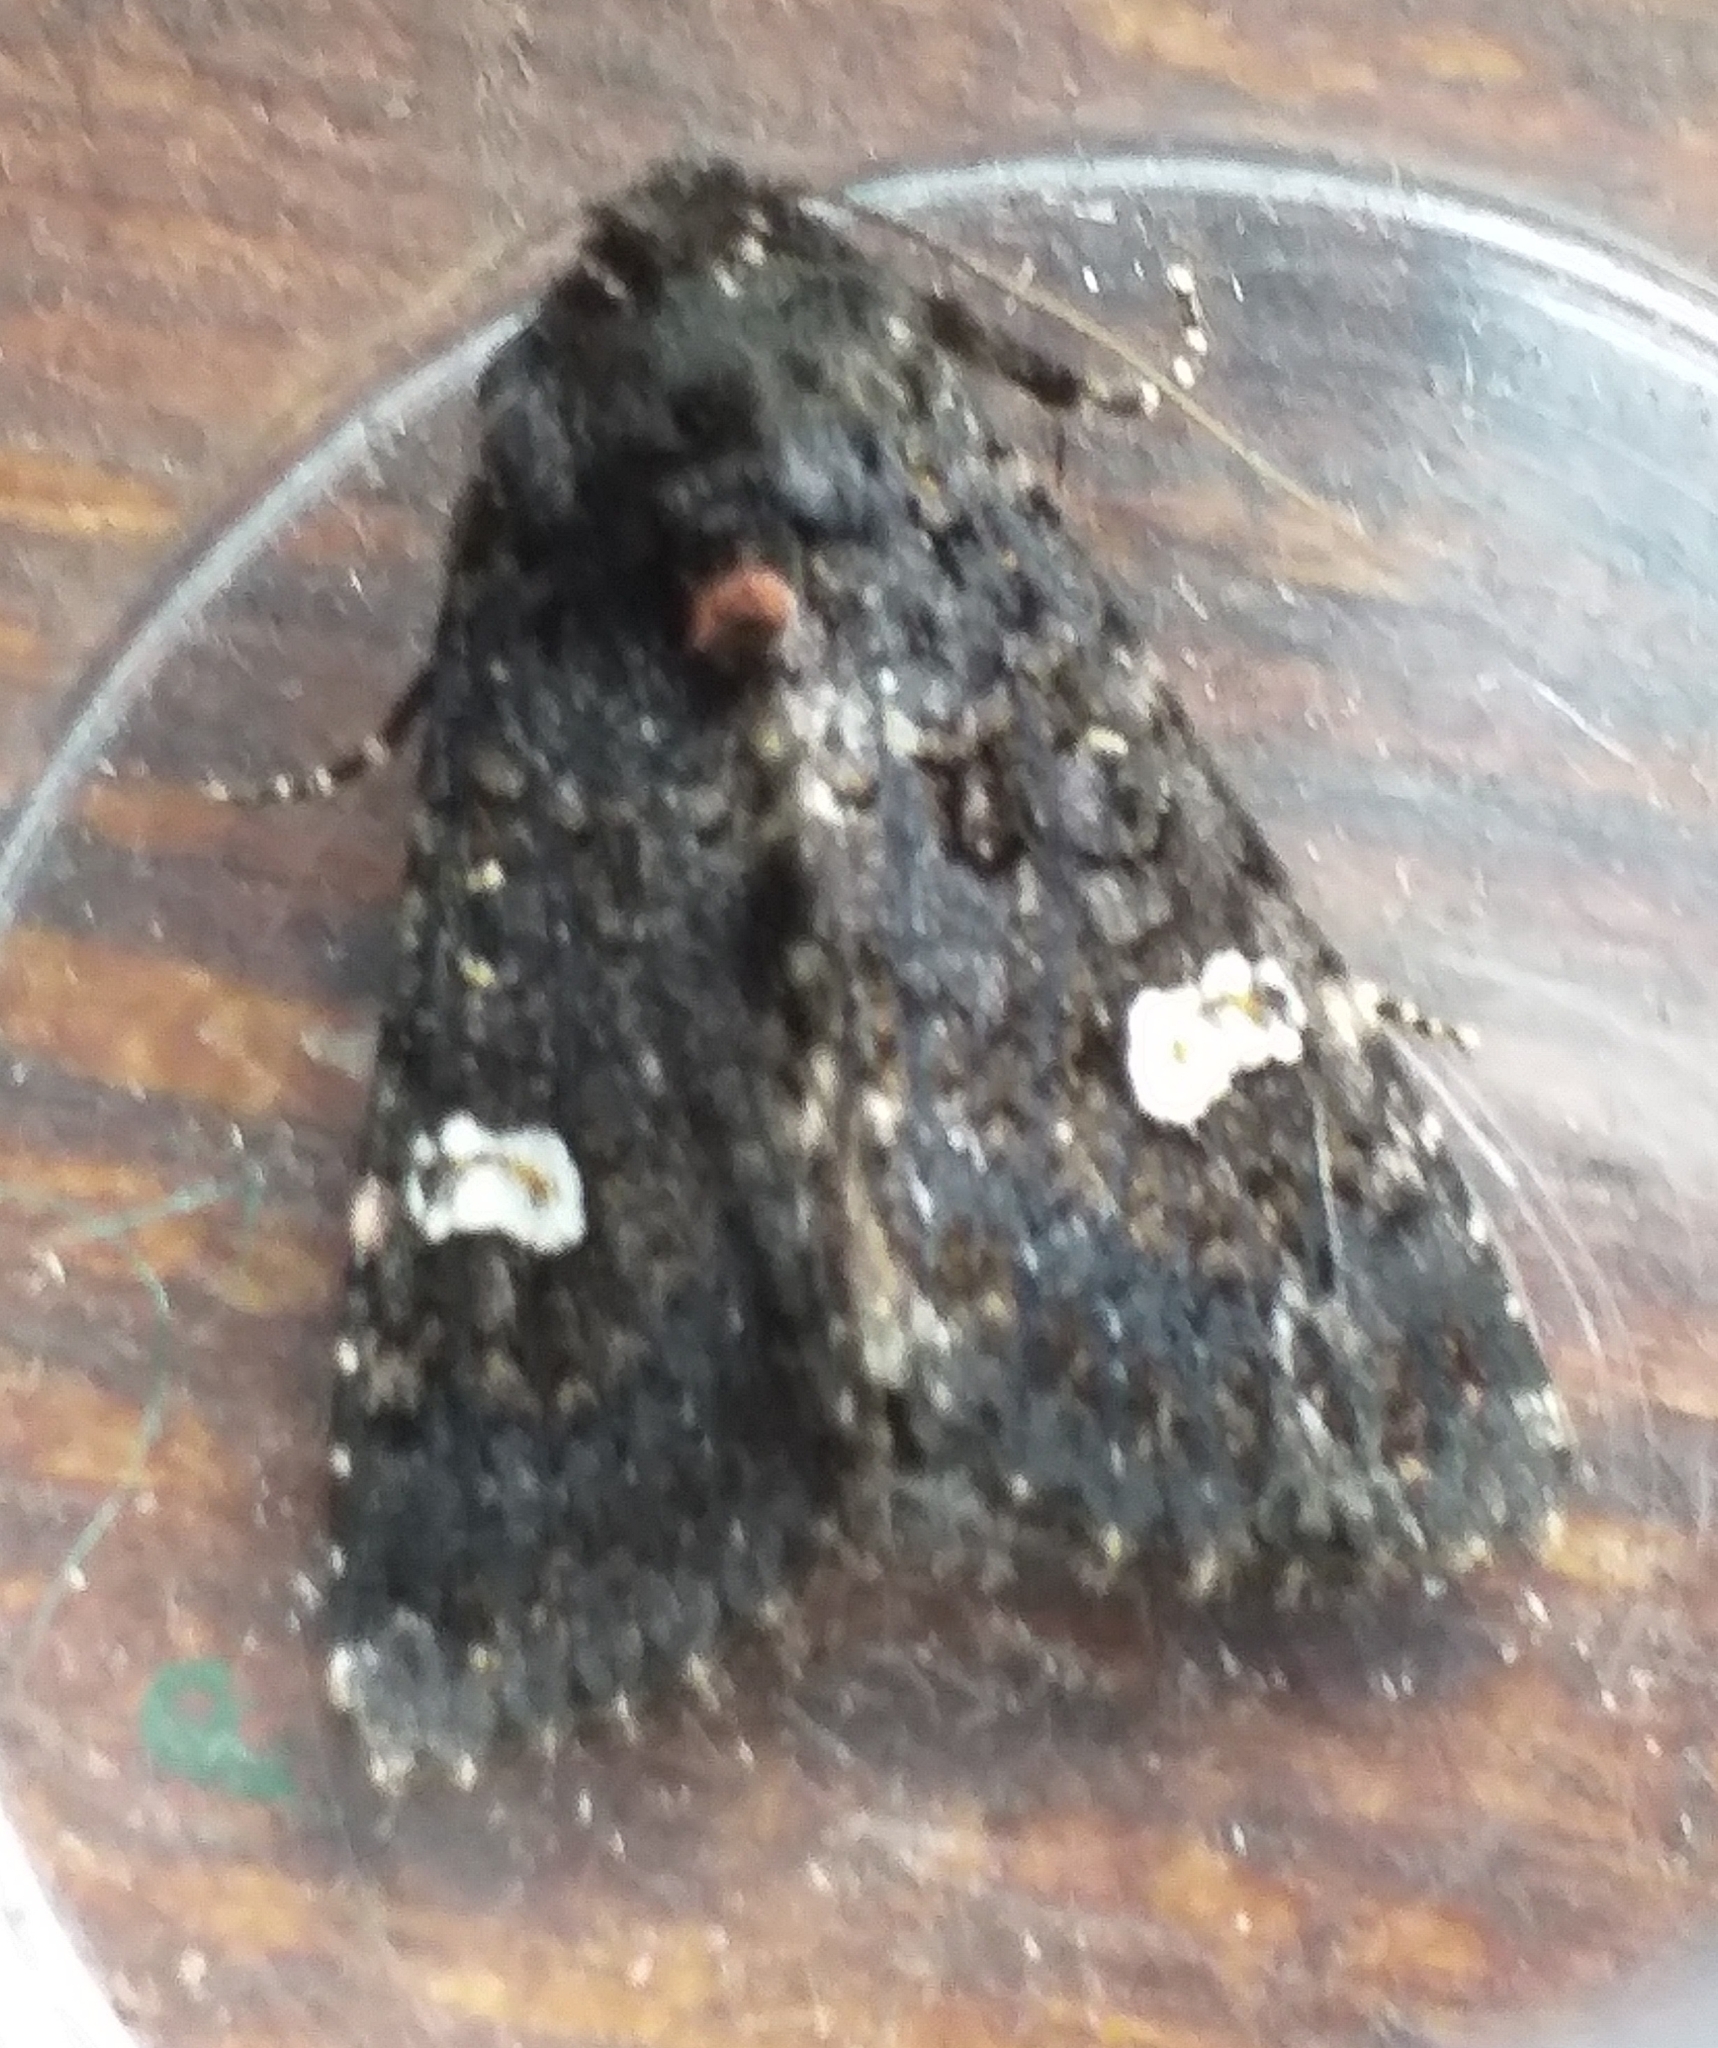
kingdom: Animalia
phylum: Arthropoda
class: Insecta
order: Lepidoptera
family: Noctuidae
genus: Melanchra
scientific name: Melanchra persicariae
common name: Dot moth
